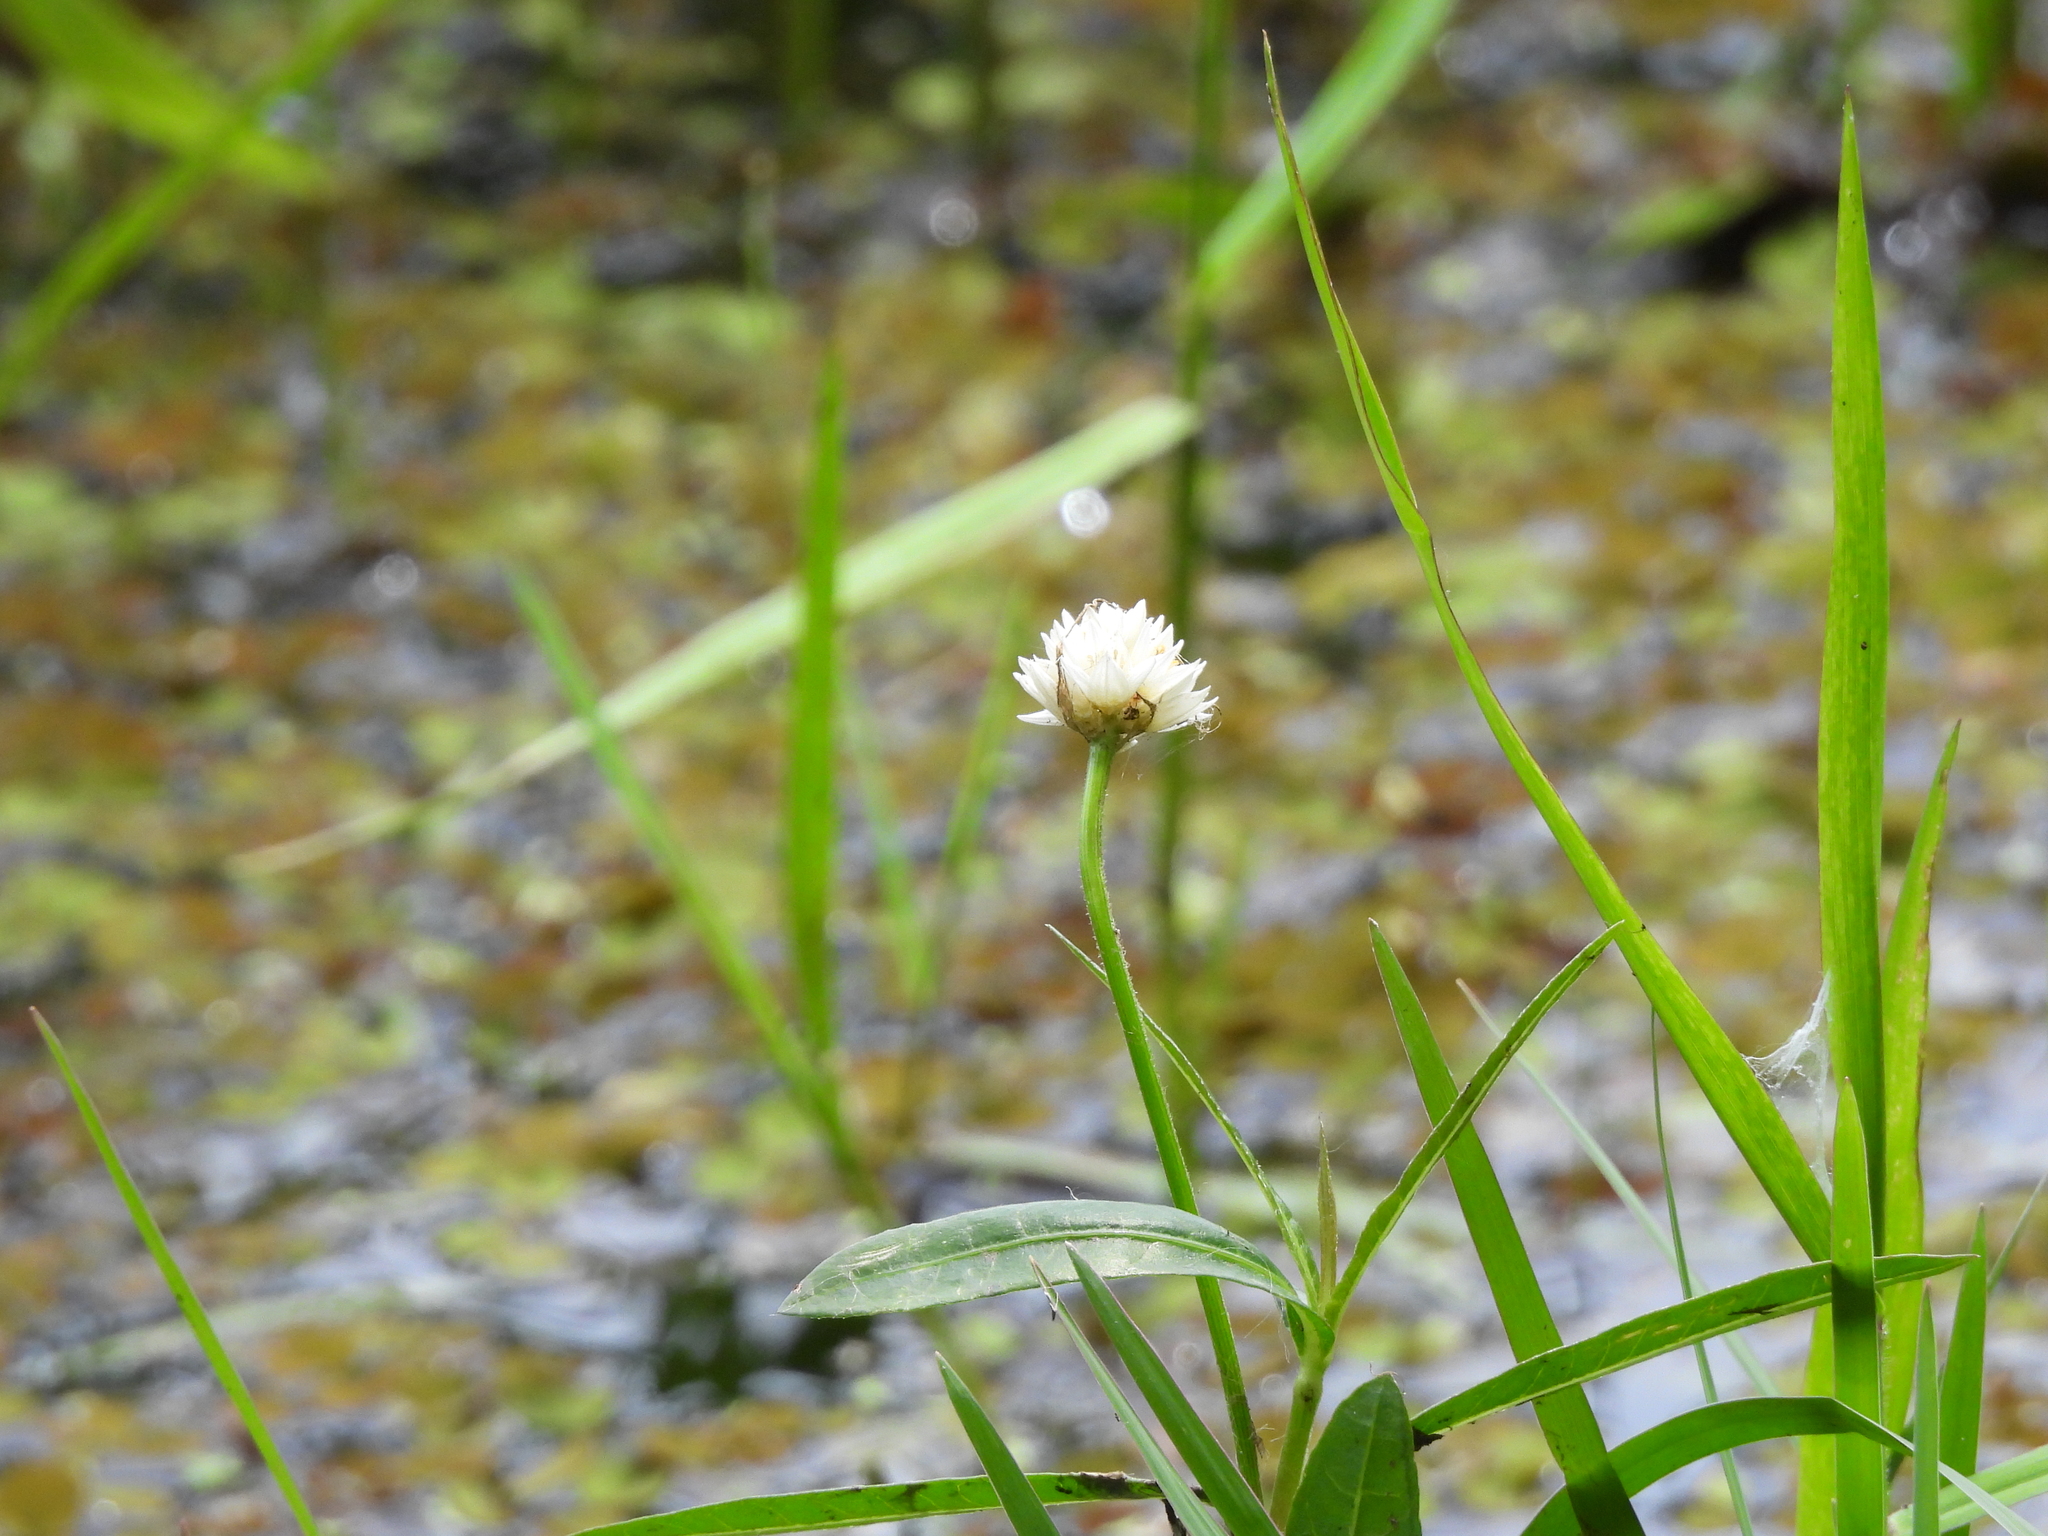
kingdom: Plantae
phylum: Tracheophyta
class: Magnoliopsida
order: Caryophyllales
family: Amaranthaceae
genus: Alternanthera
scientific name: Alternanthera philoxeroides
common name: Alligatorweed
